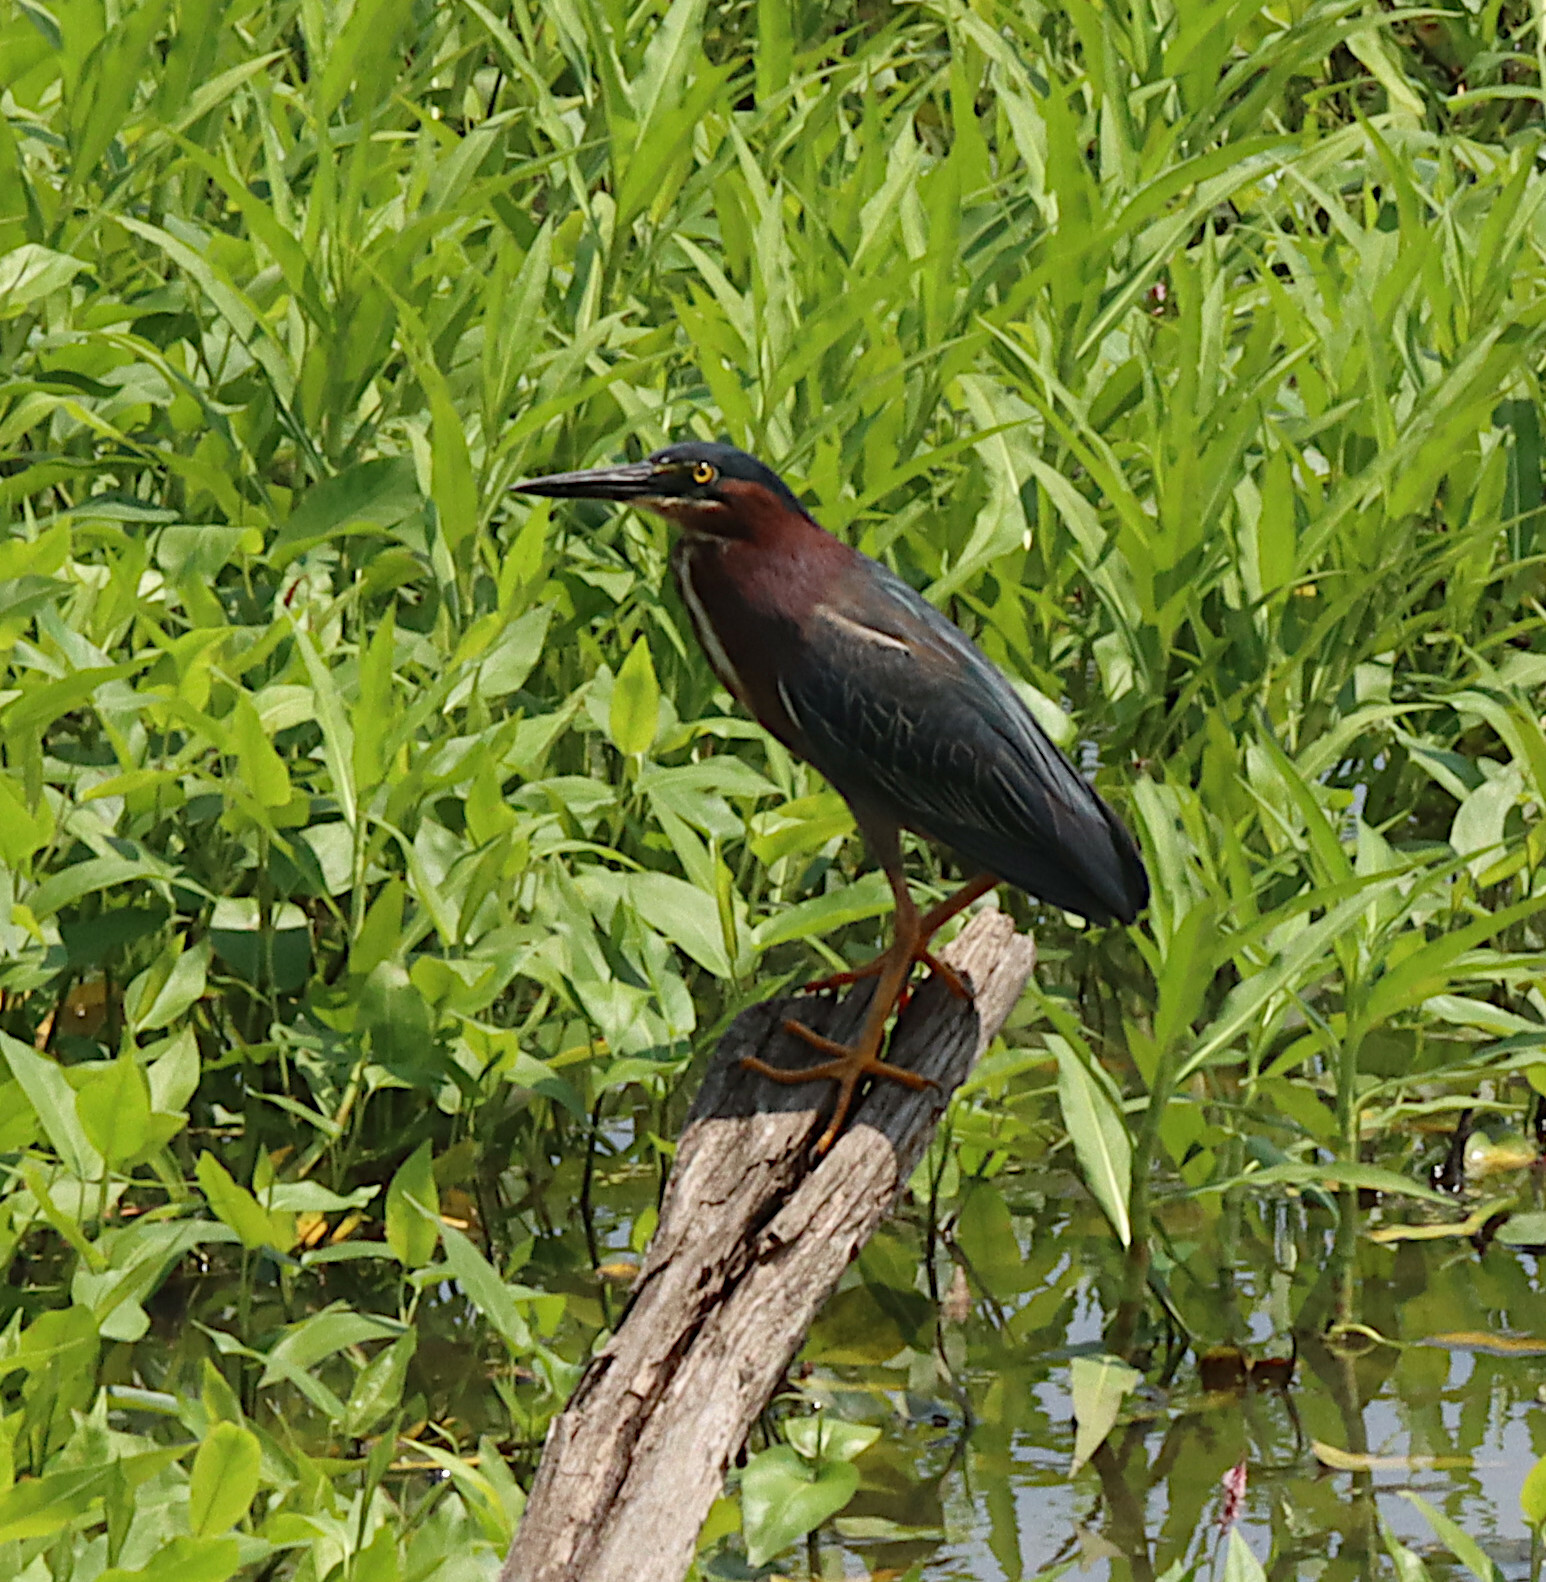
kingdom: Animalia
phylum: Chordata
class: Aves
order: Pelecaniformes
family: Ardeidae
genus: Butorides
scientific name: Butorides virescens
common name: Green heron
